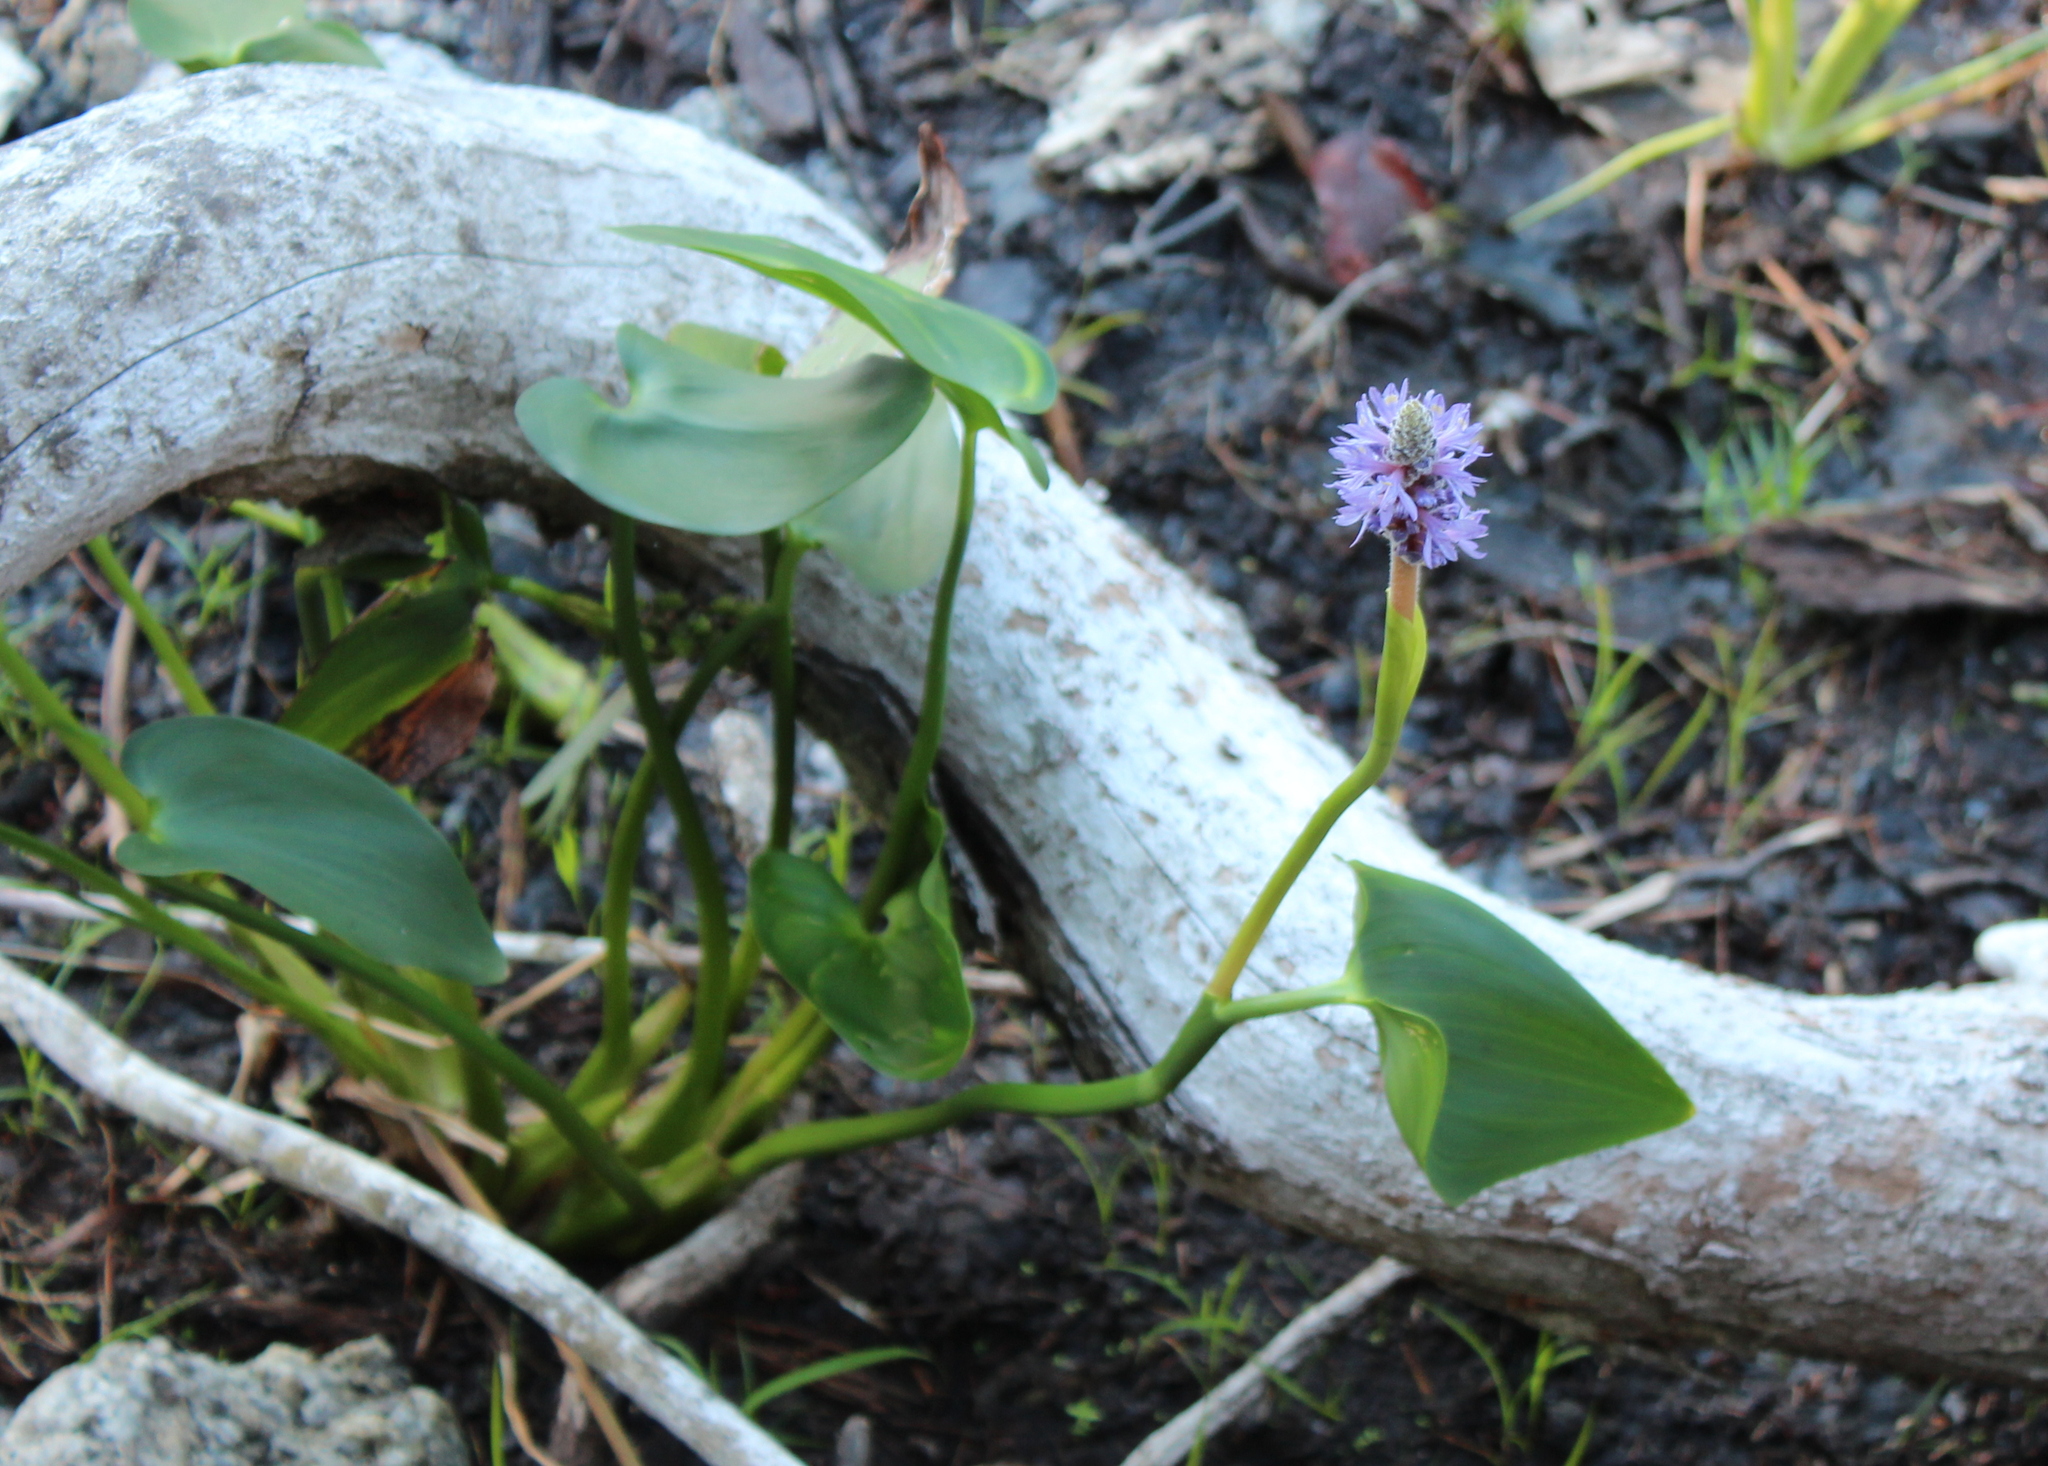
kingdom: Plantae
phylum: Tracheophyta
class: Liliopsida
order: Commelinales
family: Pontederiaceae
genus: Pontederia
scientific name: Pontederia cordata
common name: Pickerelweed
